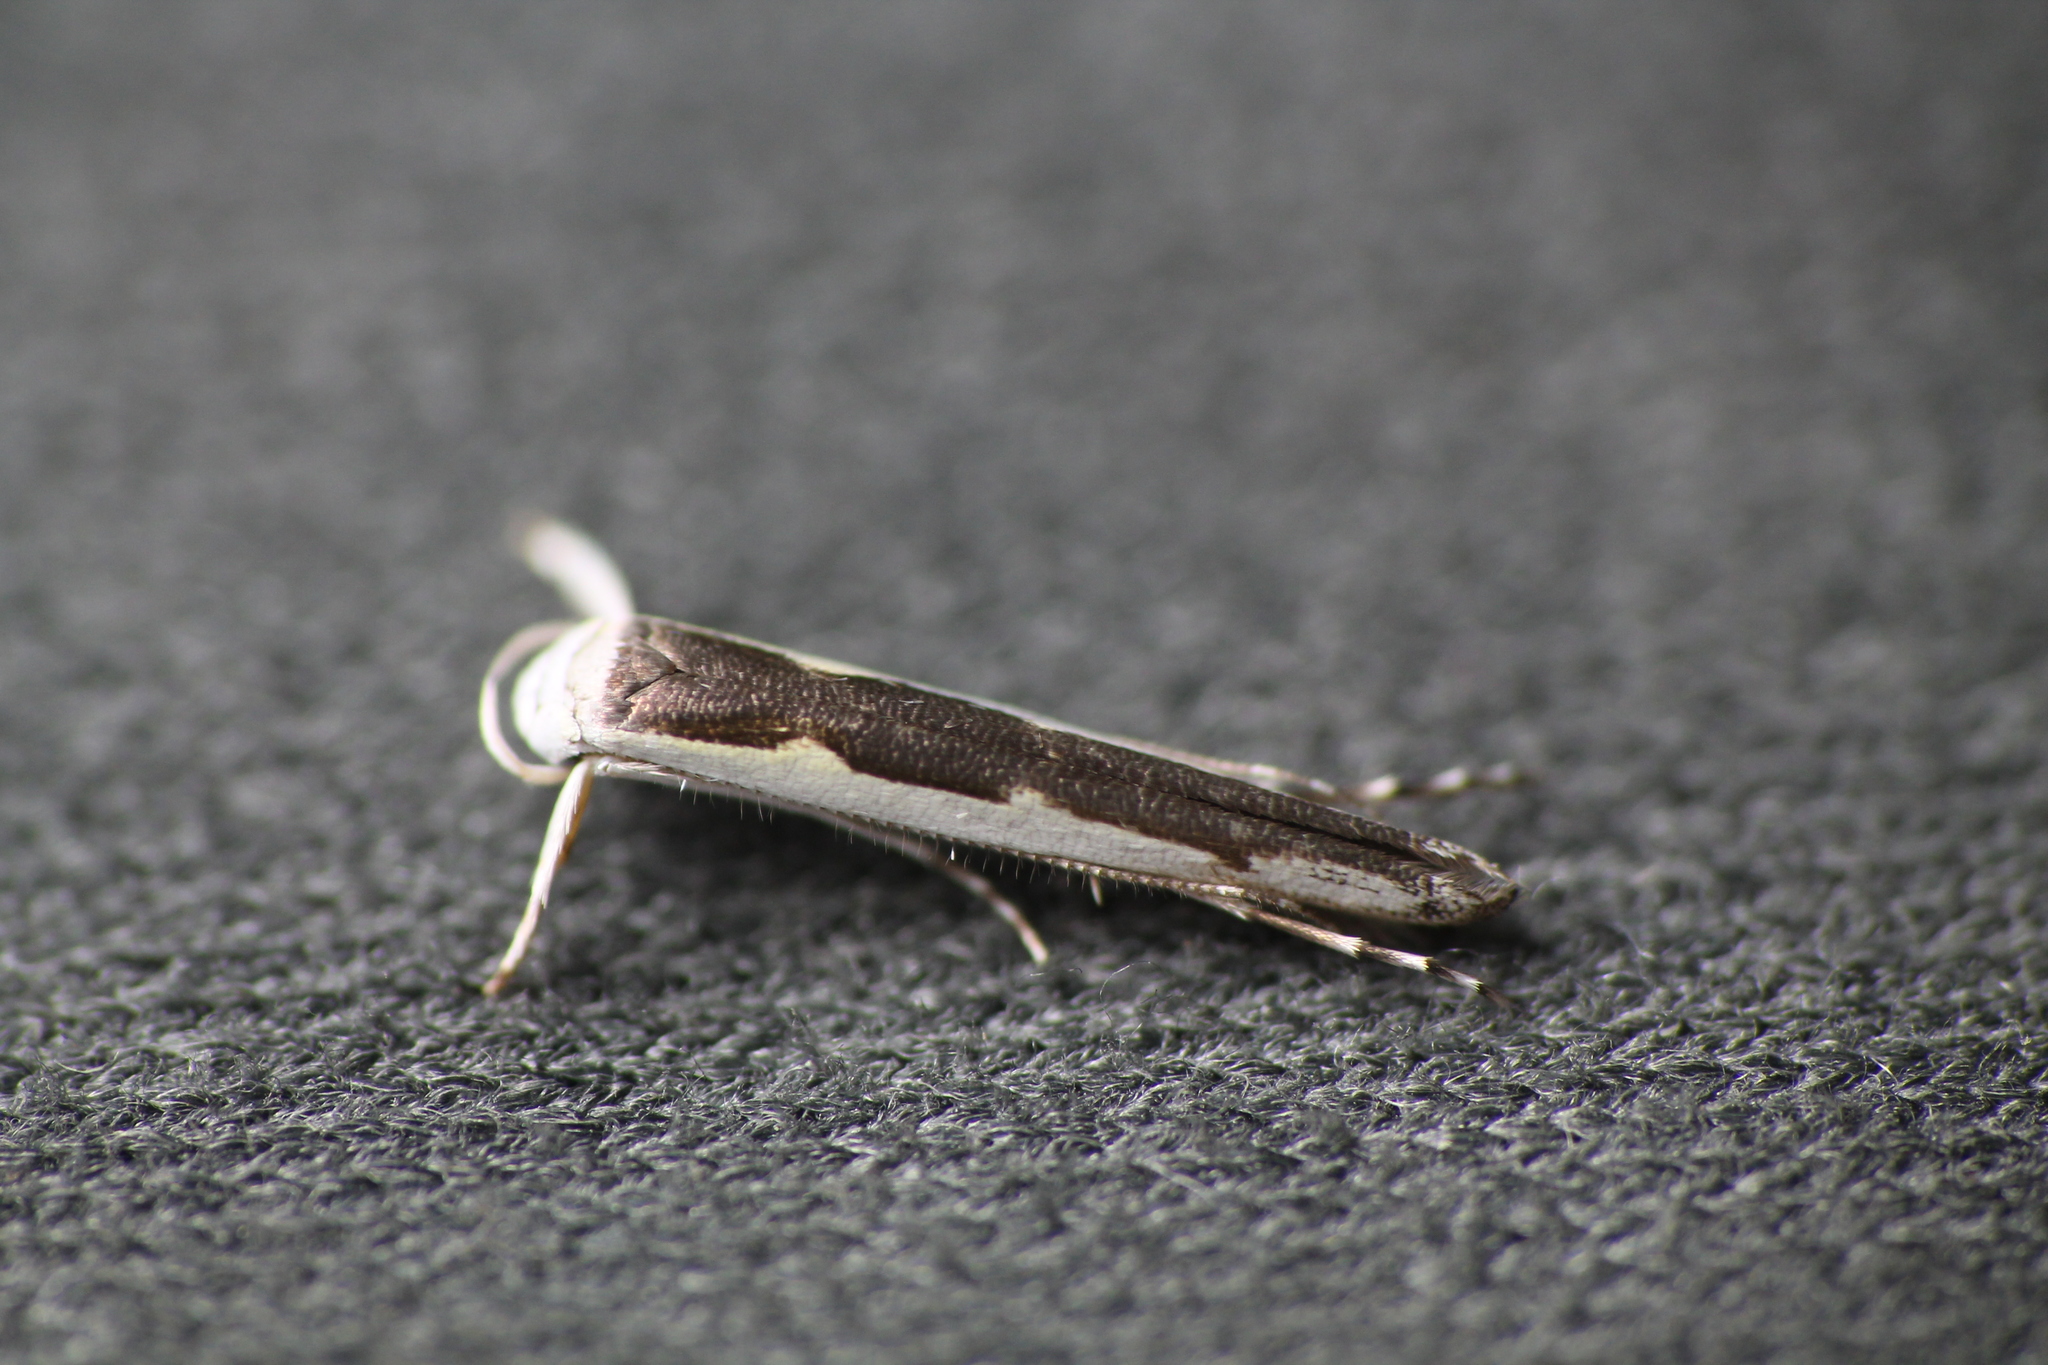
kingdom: Animalia
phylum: Arthropoda
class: Insecta
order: Lepidoptera
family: Roeslerstammiidae
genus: Vanicela
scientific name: Vanicela disjunctella
